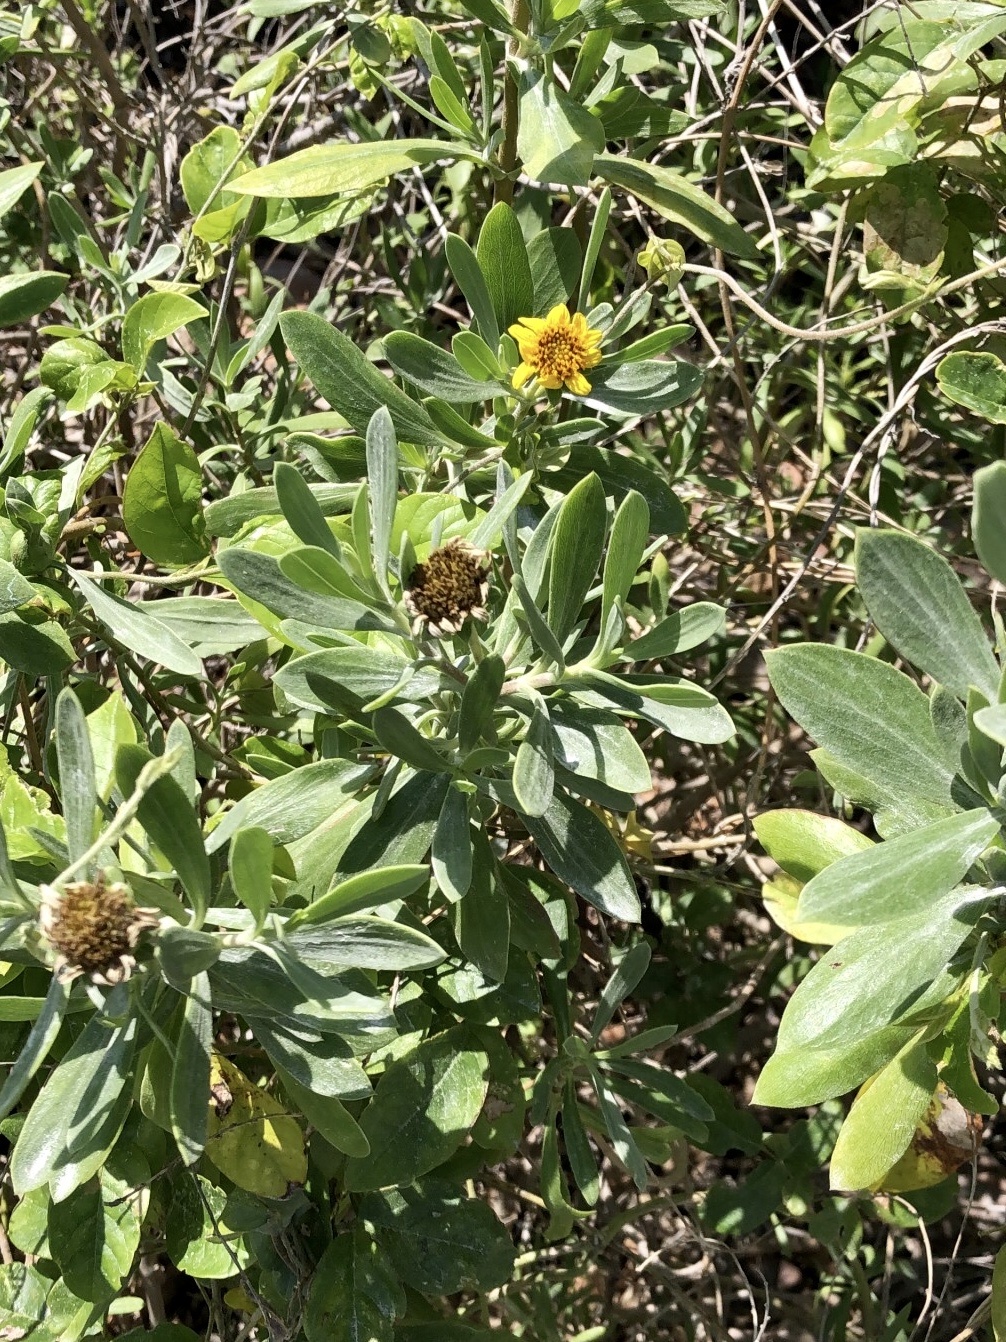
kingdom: Plantae
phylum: Tracheophyta
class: Magnoliopsida
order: Asterales
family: Asteraceae
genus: Borrichia
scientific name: Borrichia frutescens
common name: Sea oxeye
